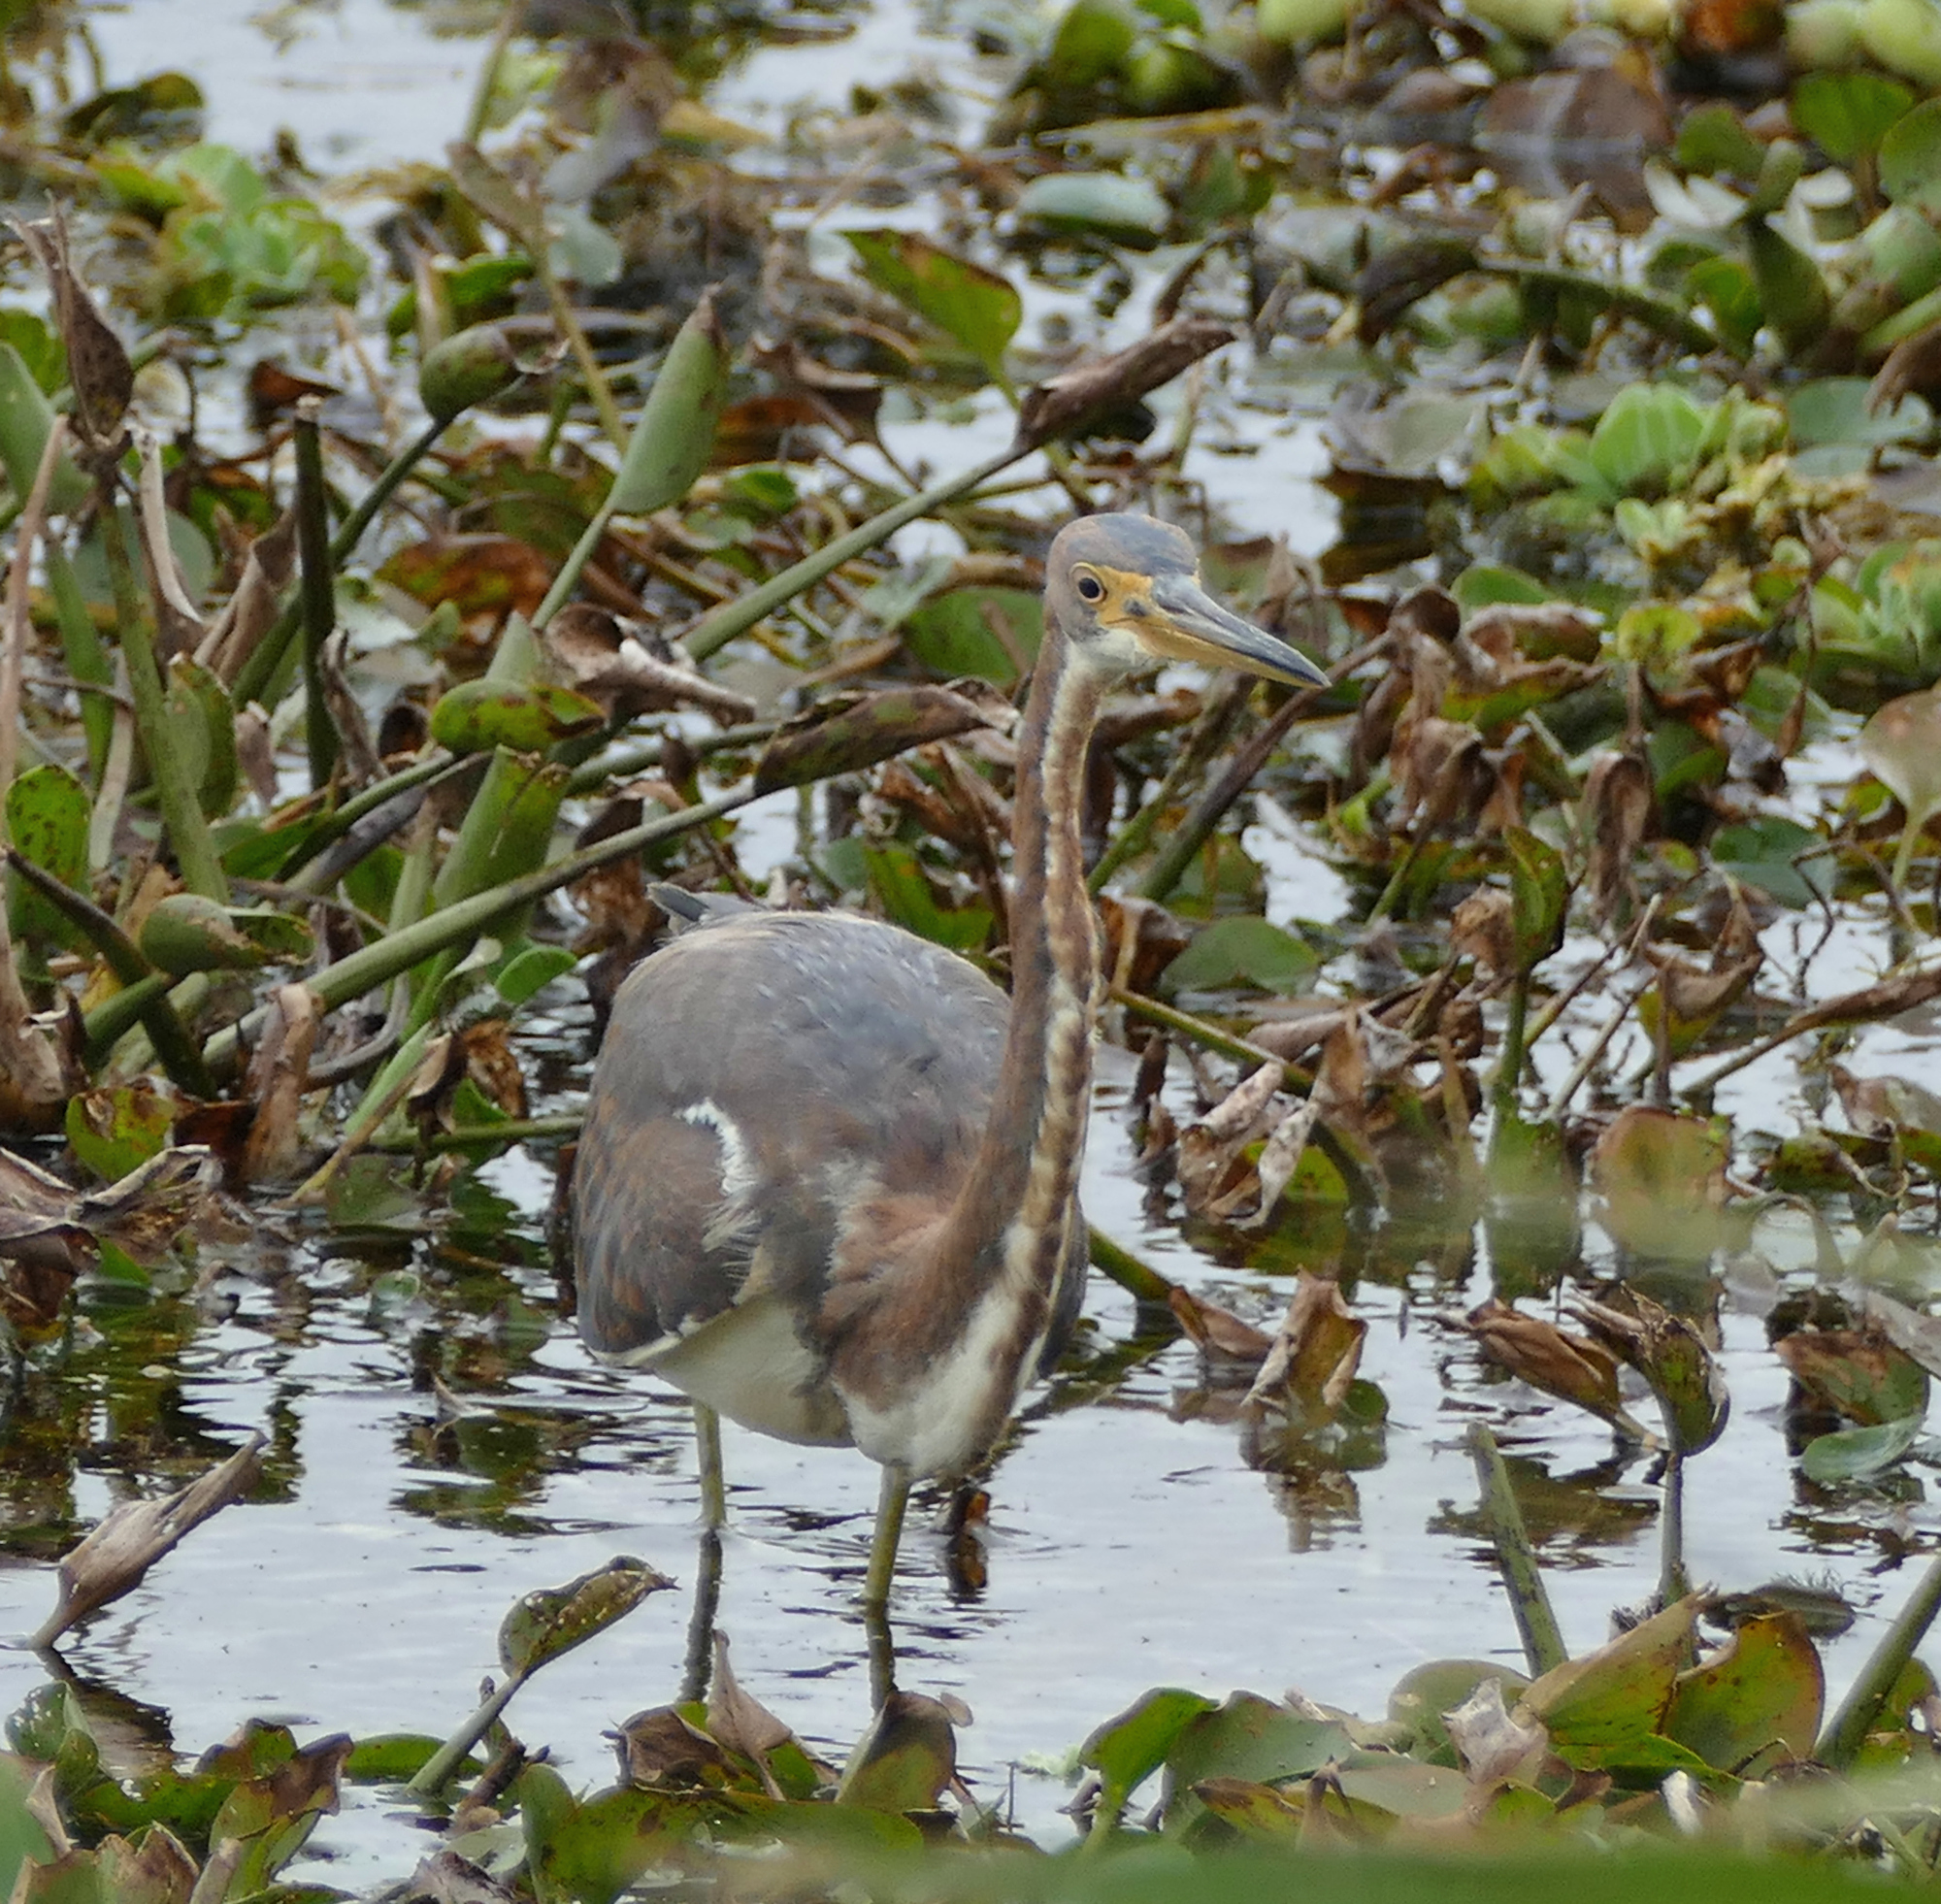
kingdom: Animalia
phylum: Chordata
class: Aves
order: Pelecaniformes
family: Ardeidae
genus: Egretta
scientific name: Egretta tricolor
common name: Tricolored heron
